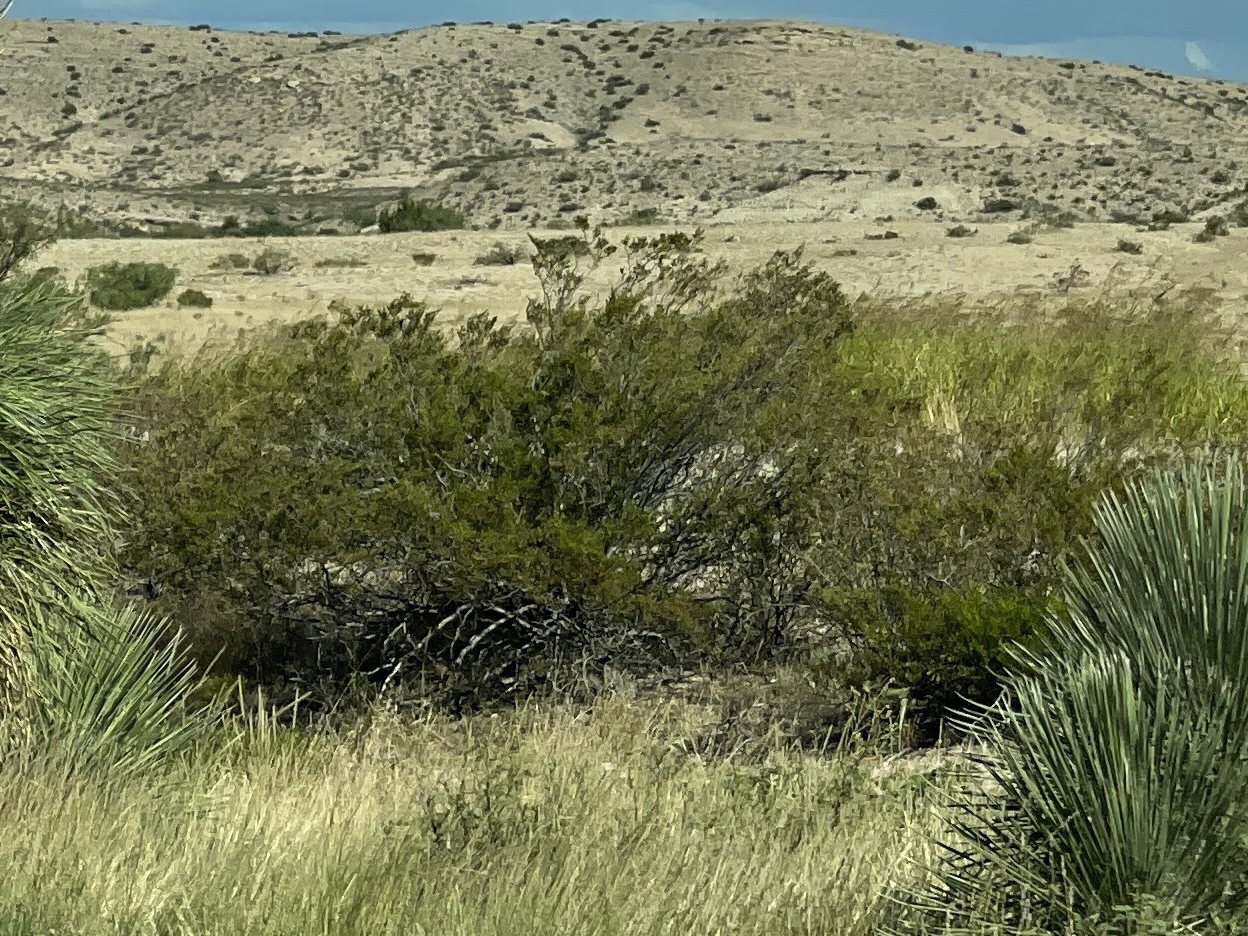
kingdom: Plantae
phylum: Tracheophyta
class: Magnoliopsida
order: Zygophyllales
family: Zygophyllaceae
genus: Larrea
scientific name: Larrea tridentata
